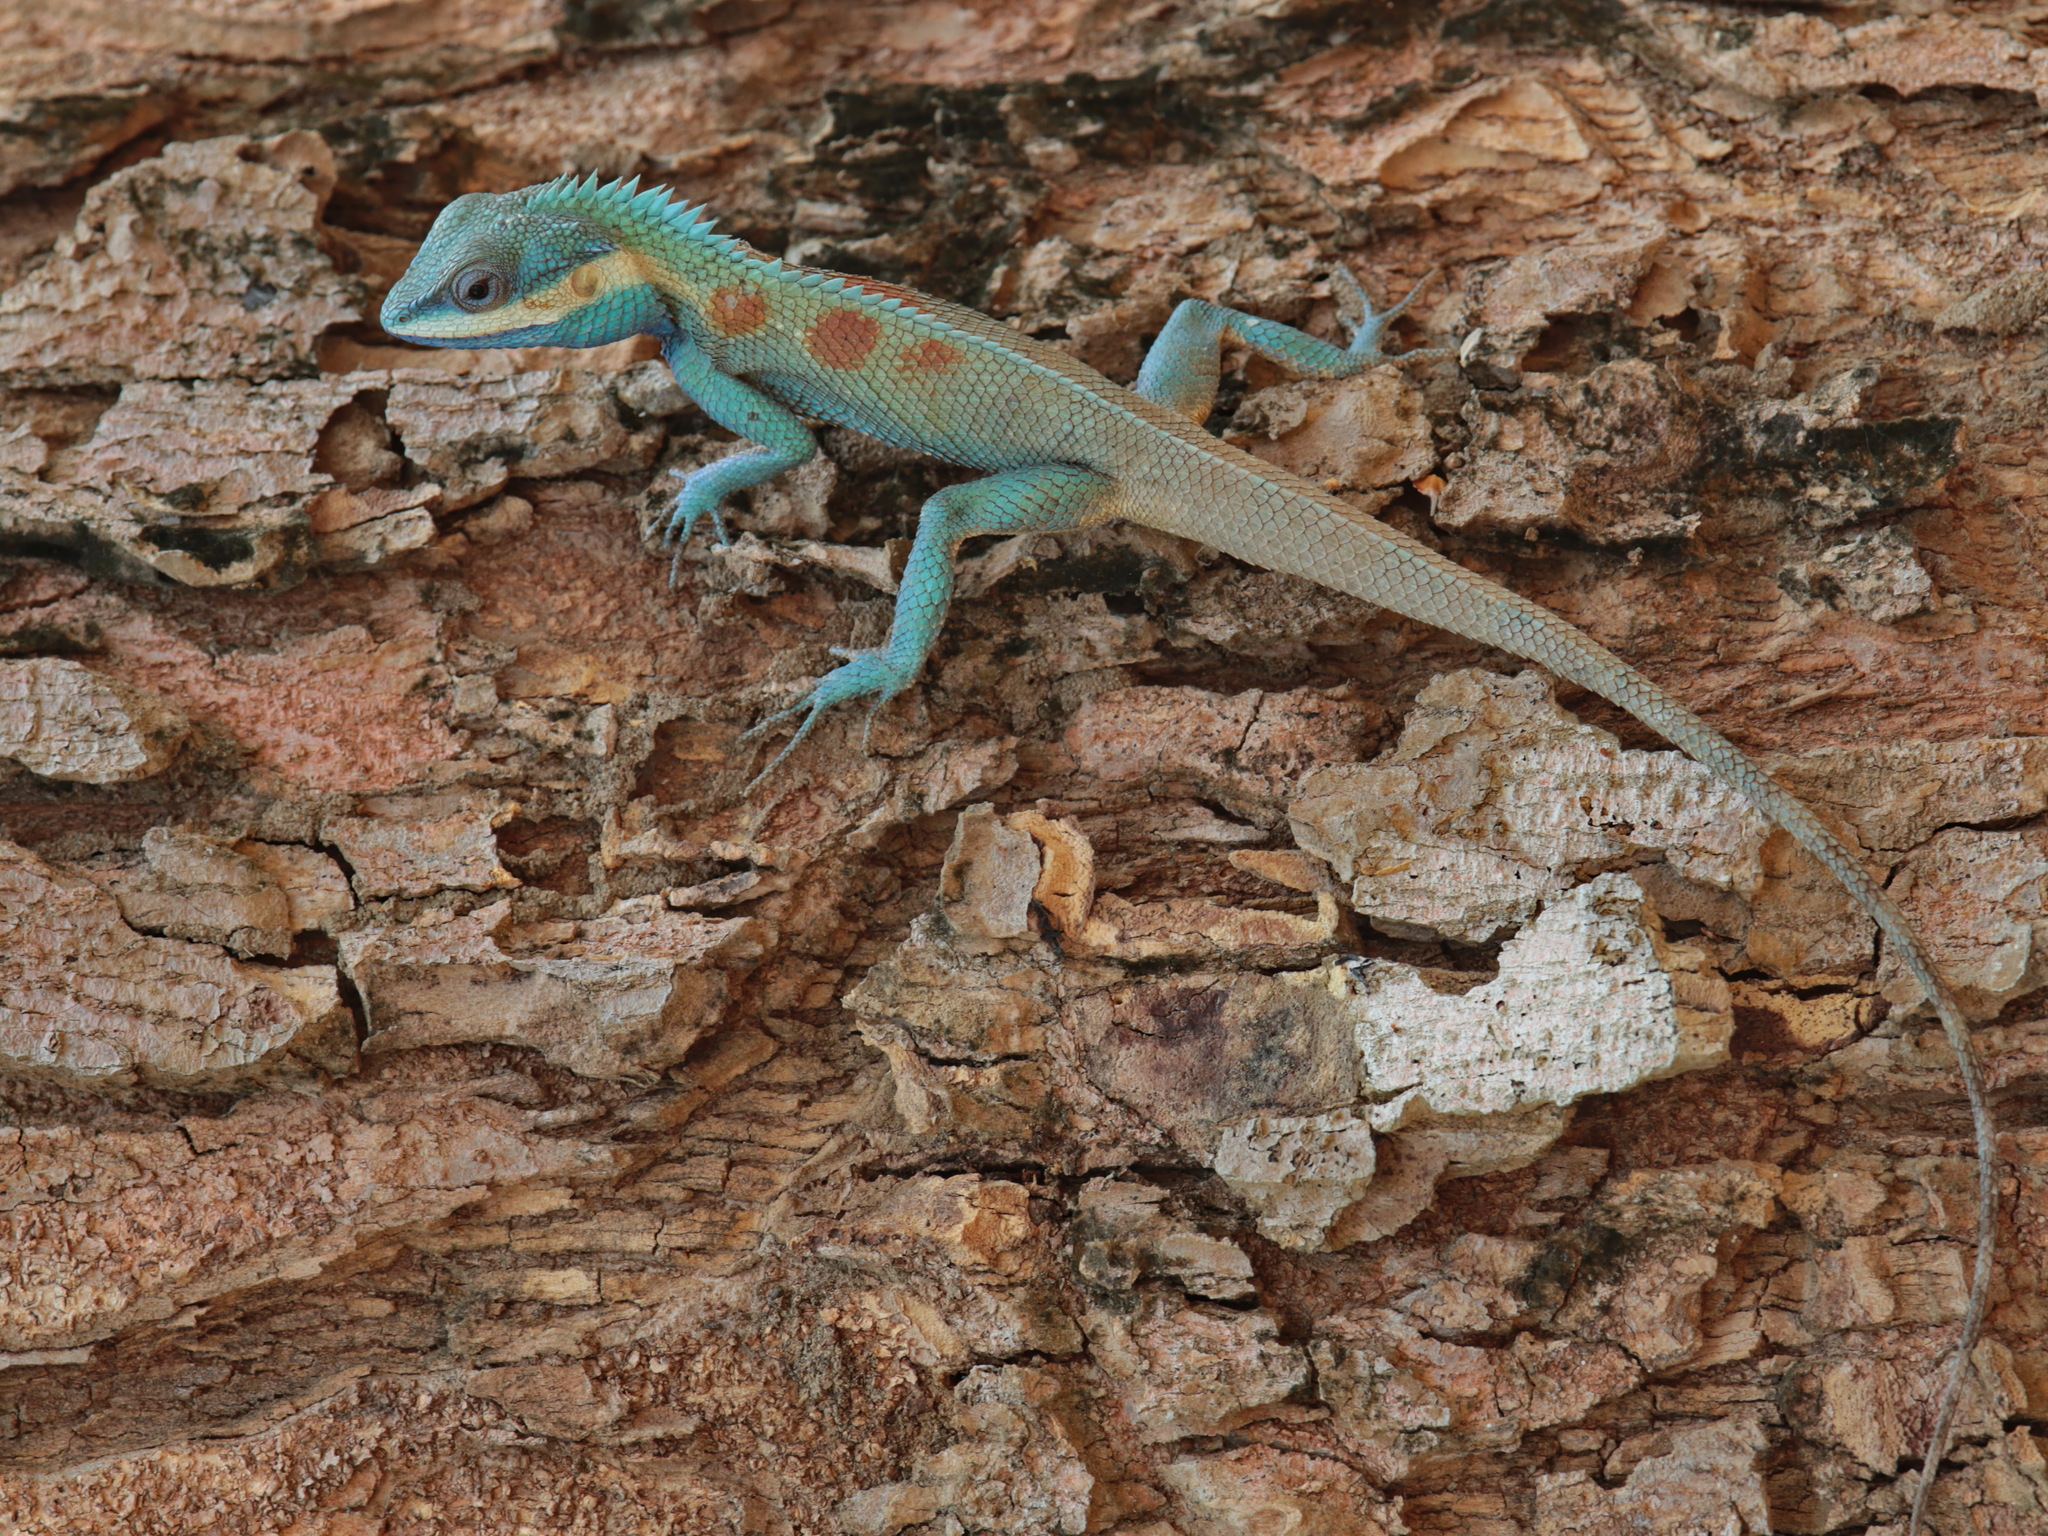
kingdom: Animalia
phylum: Chordata
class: Squamata
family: Agamidae
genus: Calotes
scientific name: Calotes goetzi
